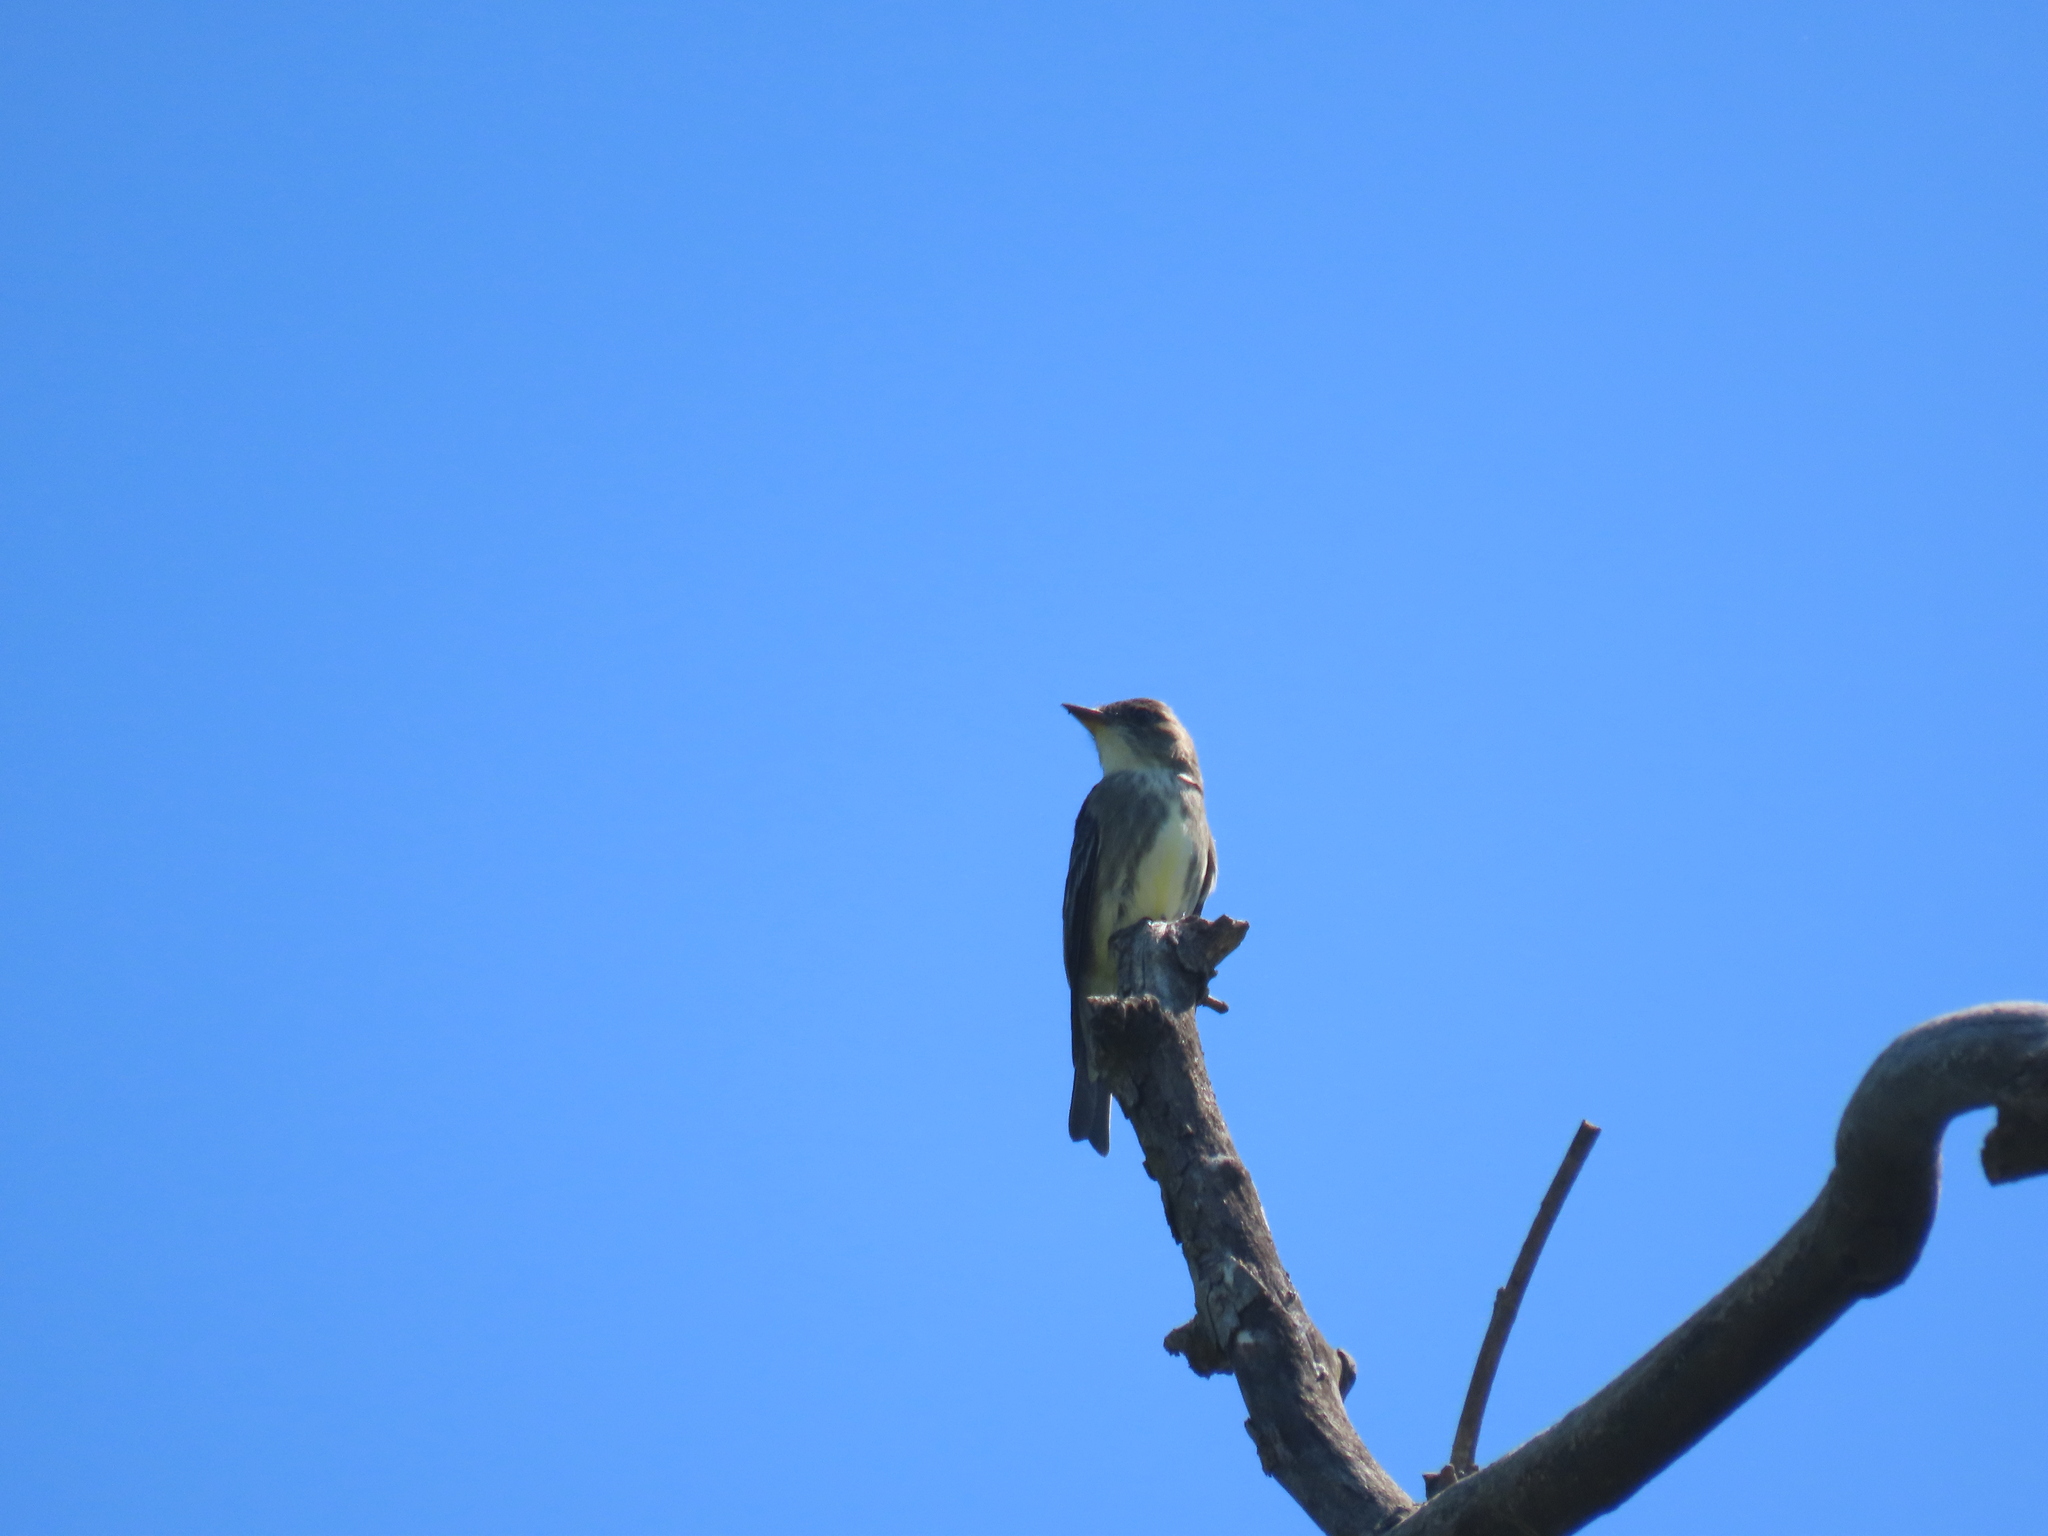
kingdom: Animalia
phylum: Chordata
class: Aves
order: Passeriformes
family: Tyrannidae
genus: Contopus
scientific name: Contopus cooperi
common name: Olive-sided flycatcher
